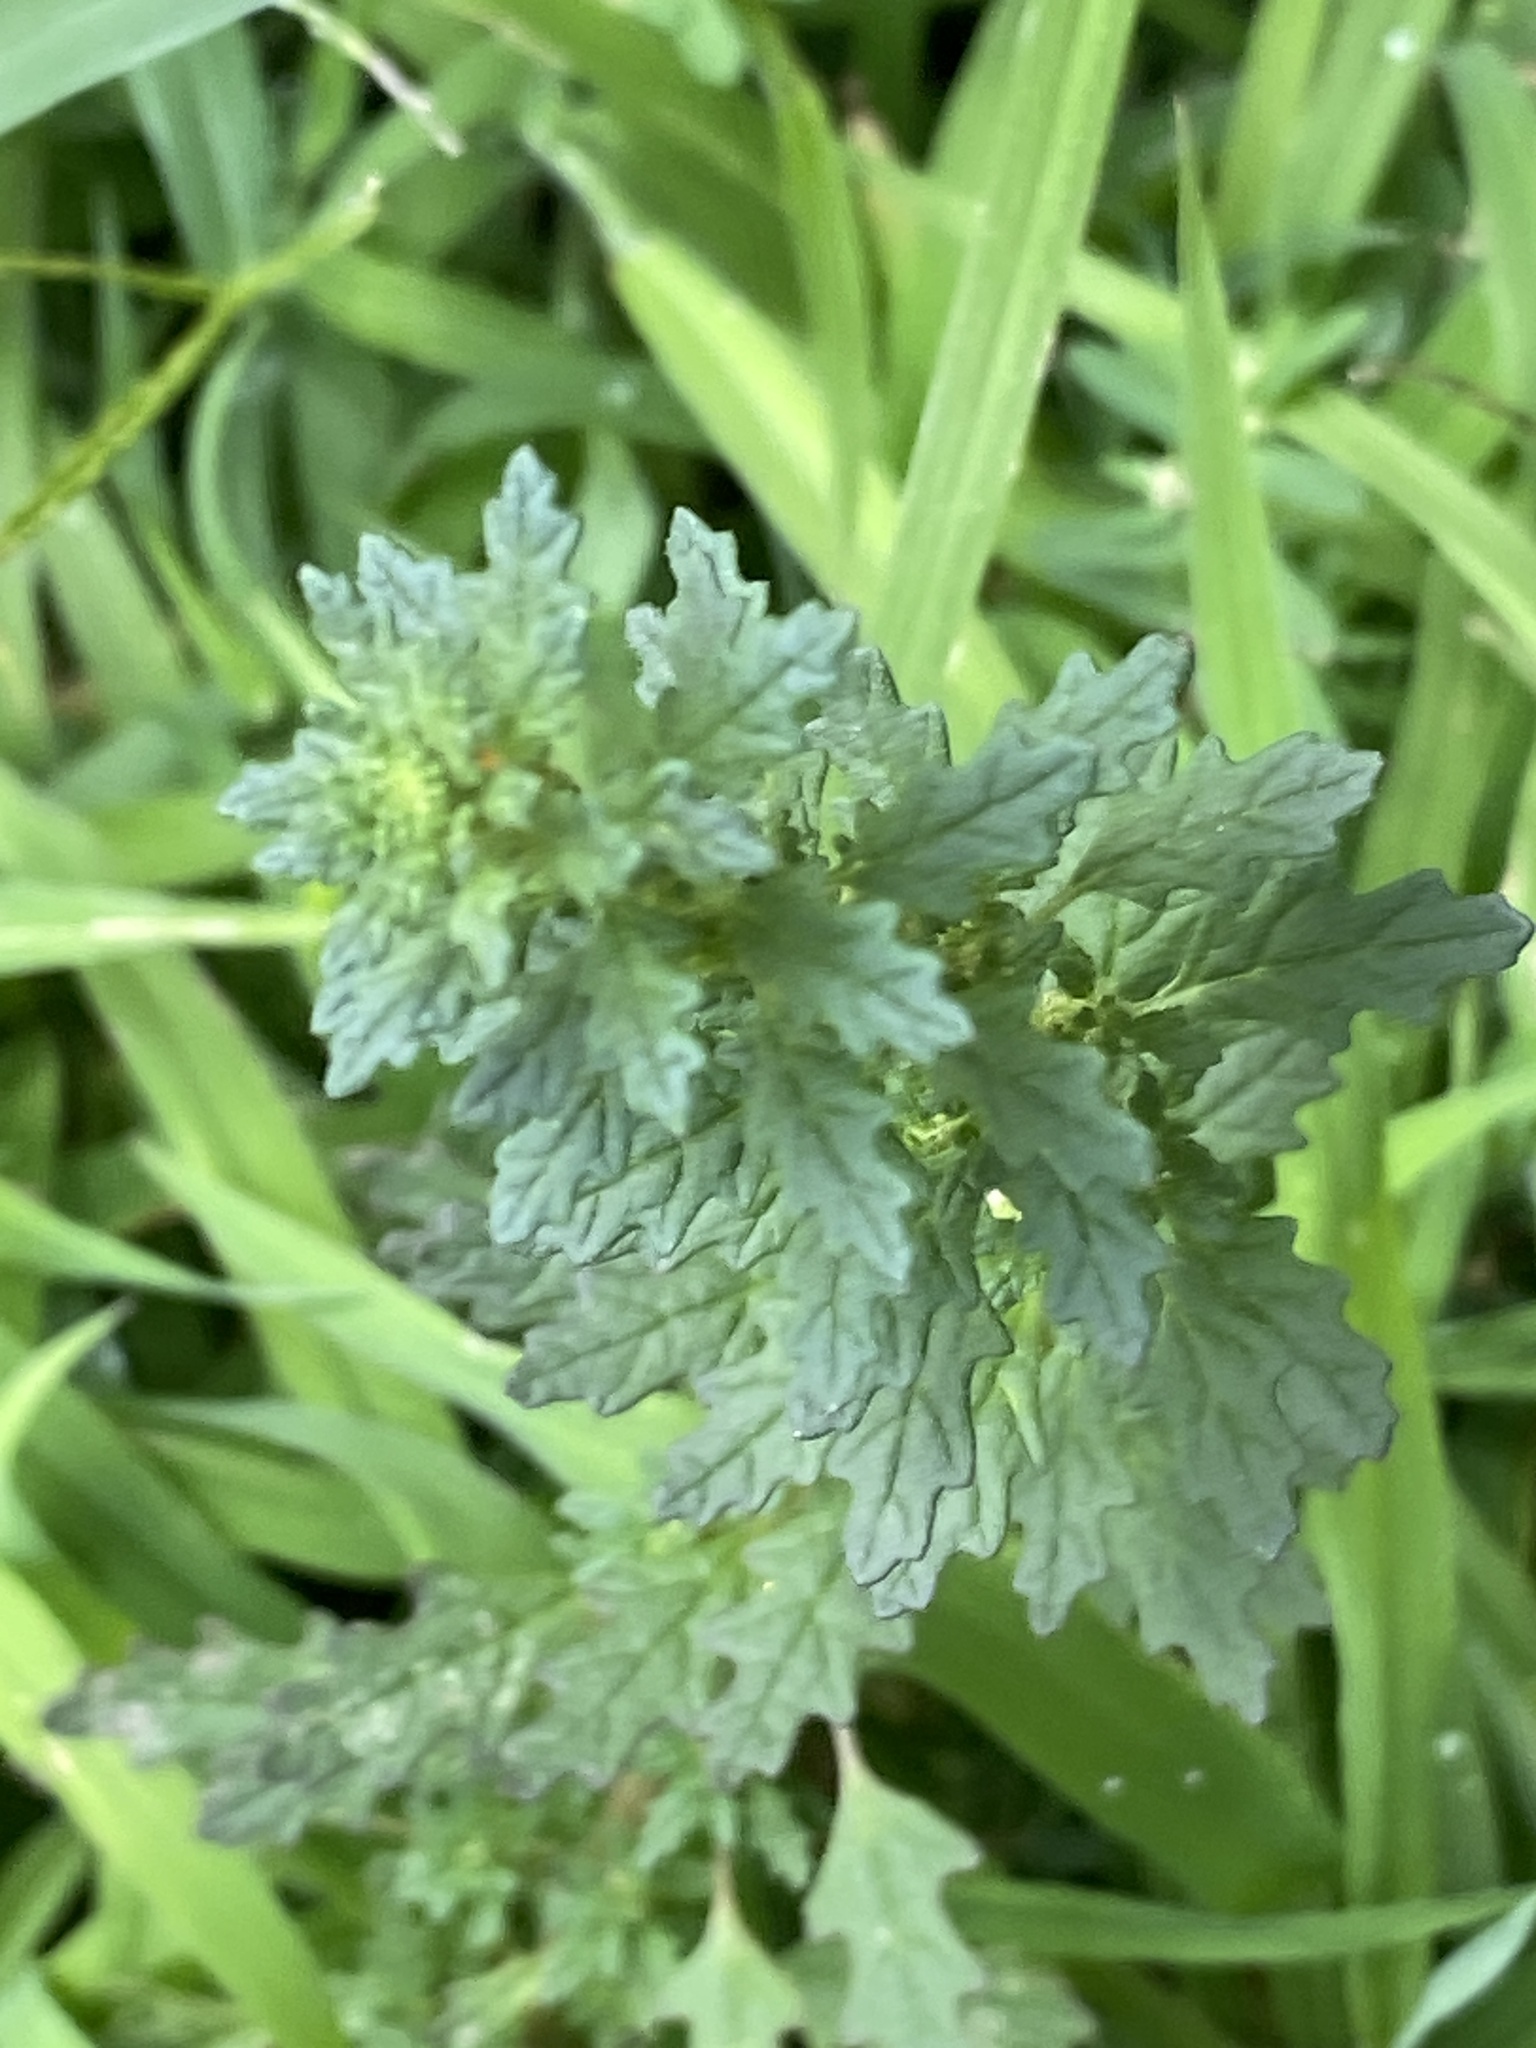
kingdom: Plantae
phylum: Tracheophyta
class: Magnoliopsida
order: Caryophyllales
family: Amaranthaceae
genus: Dysphania
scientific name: Dysphania pumilio
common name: Clammy goosefoot
